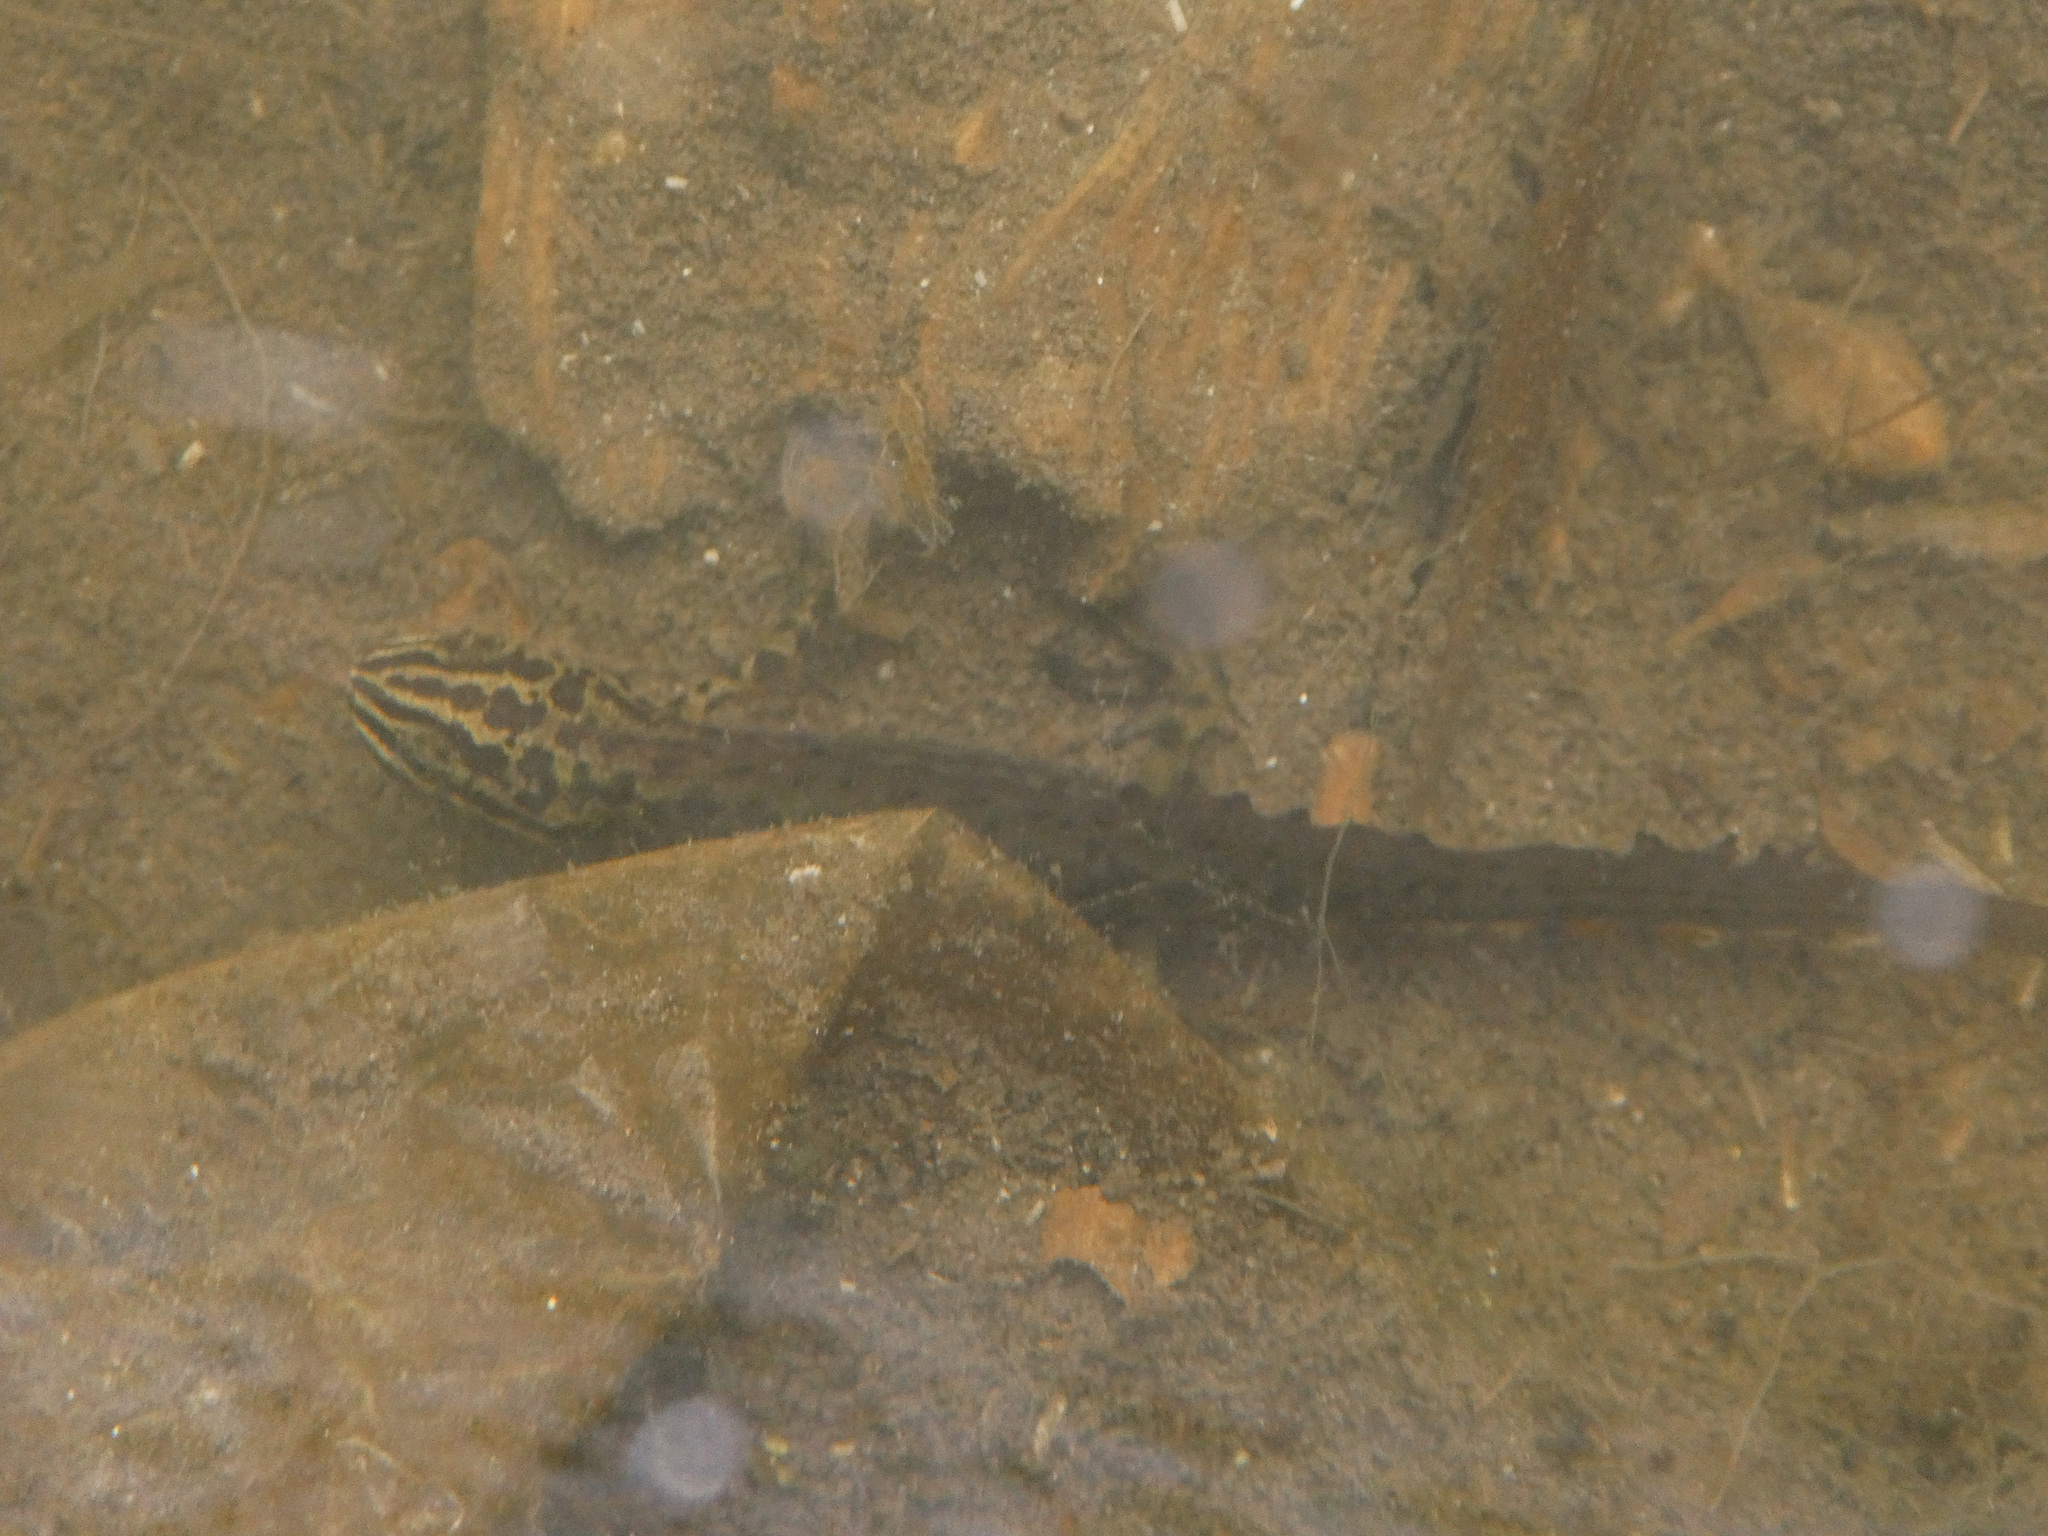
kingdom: Animalia
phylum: Chordata
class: Amphibia
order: Caudata
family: Salamandridae
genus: Lissotriton
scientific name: Lissotriton vulgaris
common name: Smooth newt
